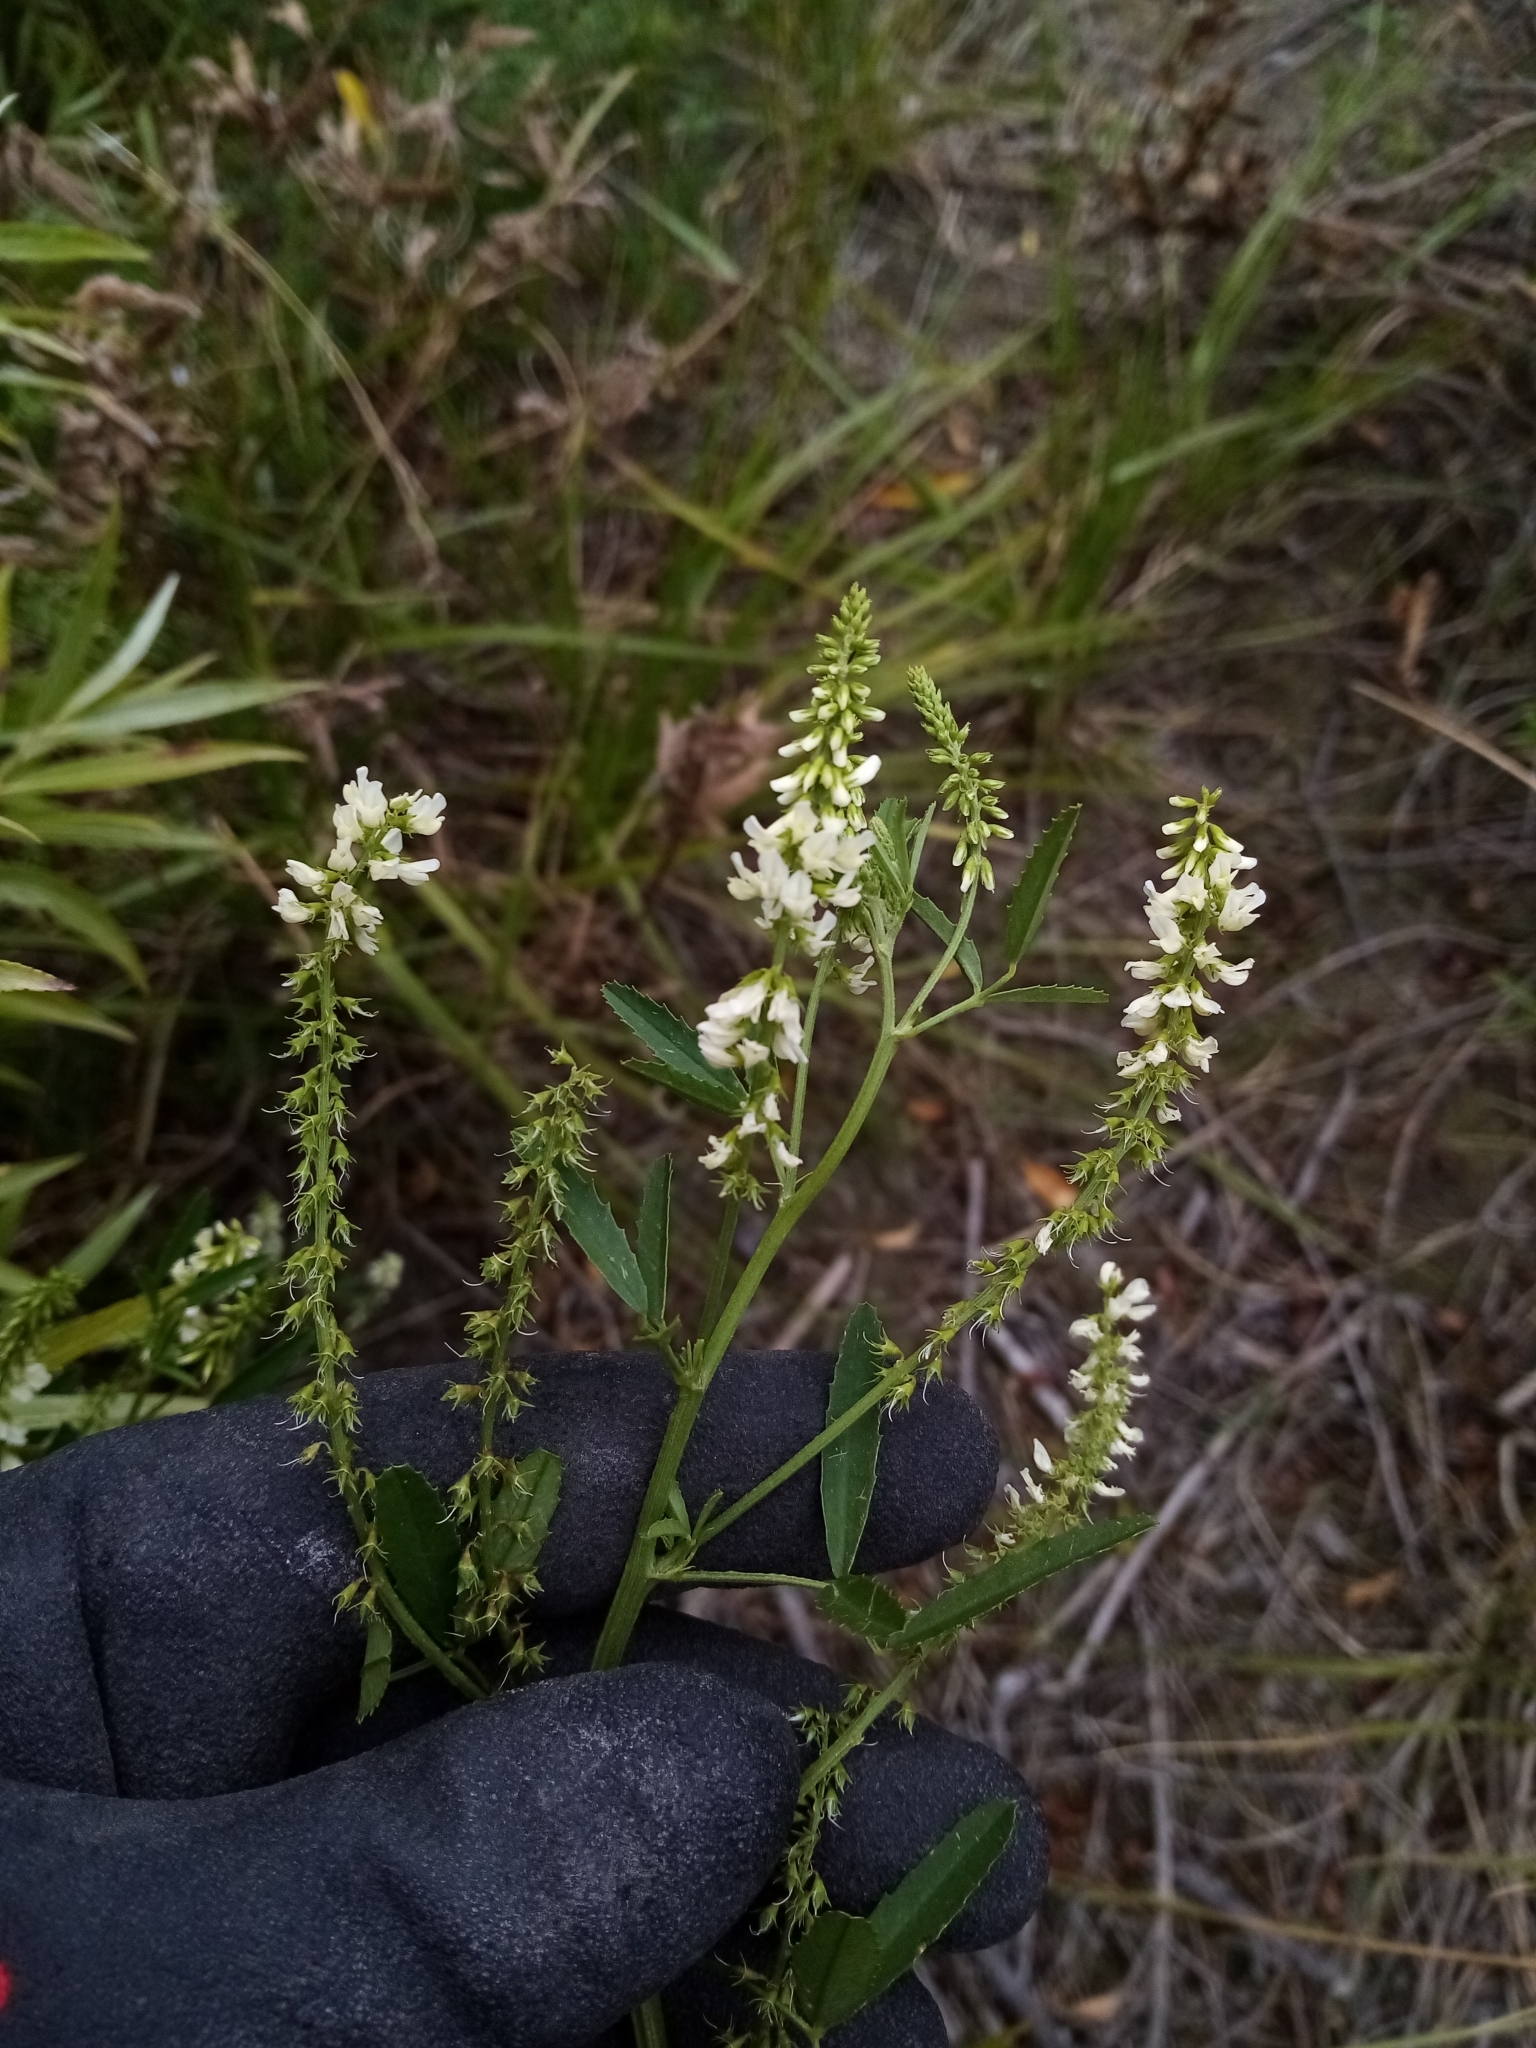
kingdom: Plantae
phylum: Tracheophyta
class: Magnoliopsida
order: Fabales
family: Fabaceae
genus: Melilotus
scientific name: Melilotus albus
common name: White melilot
